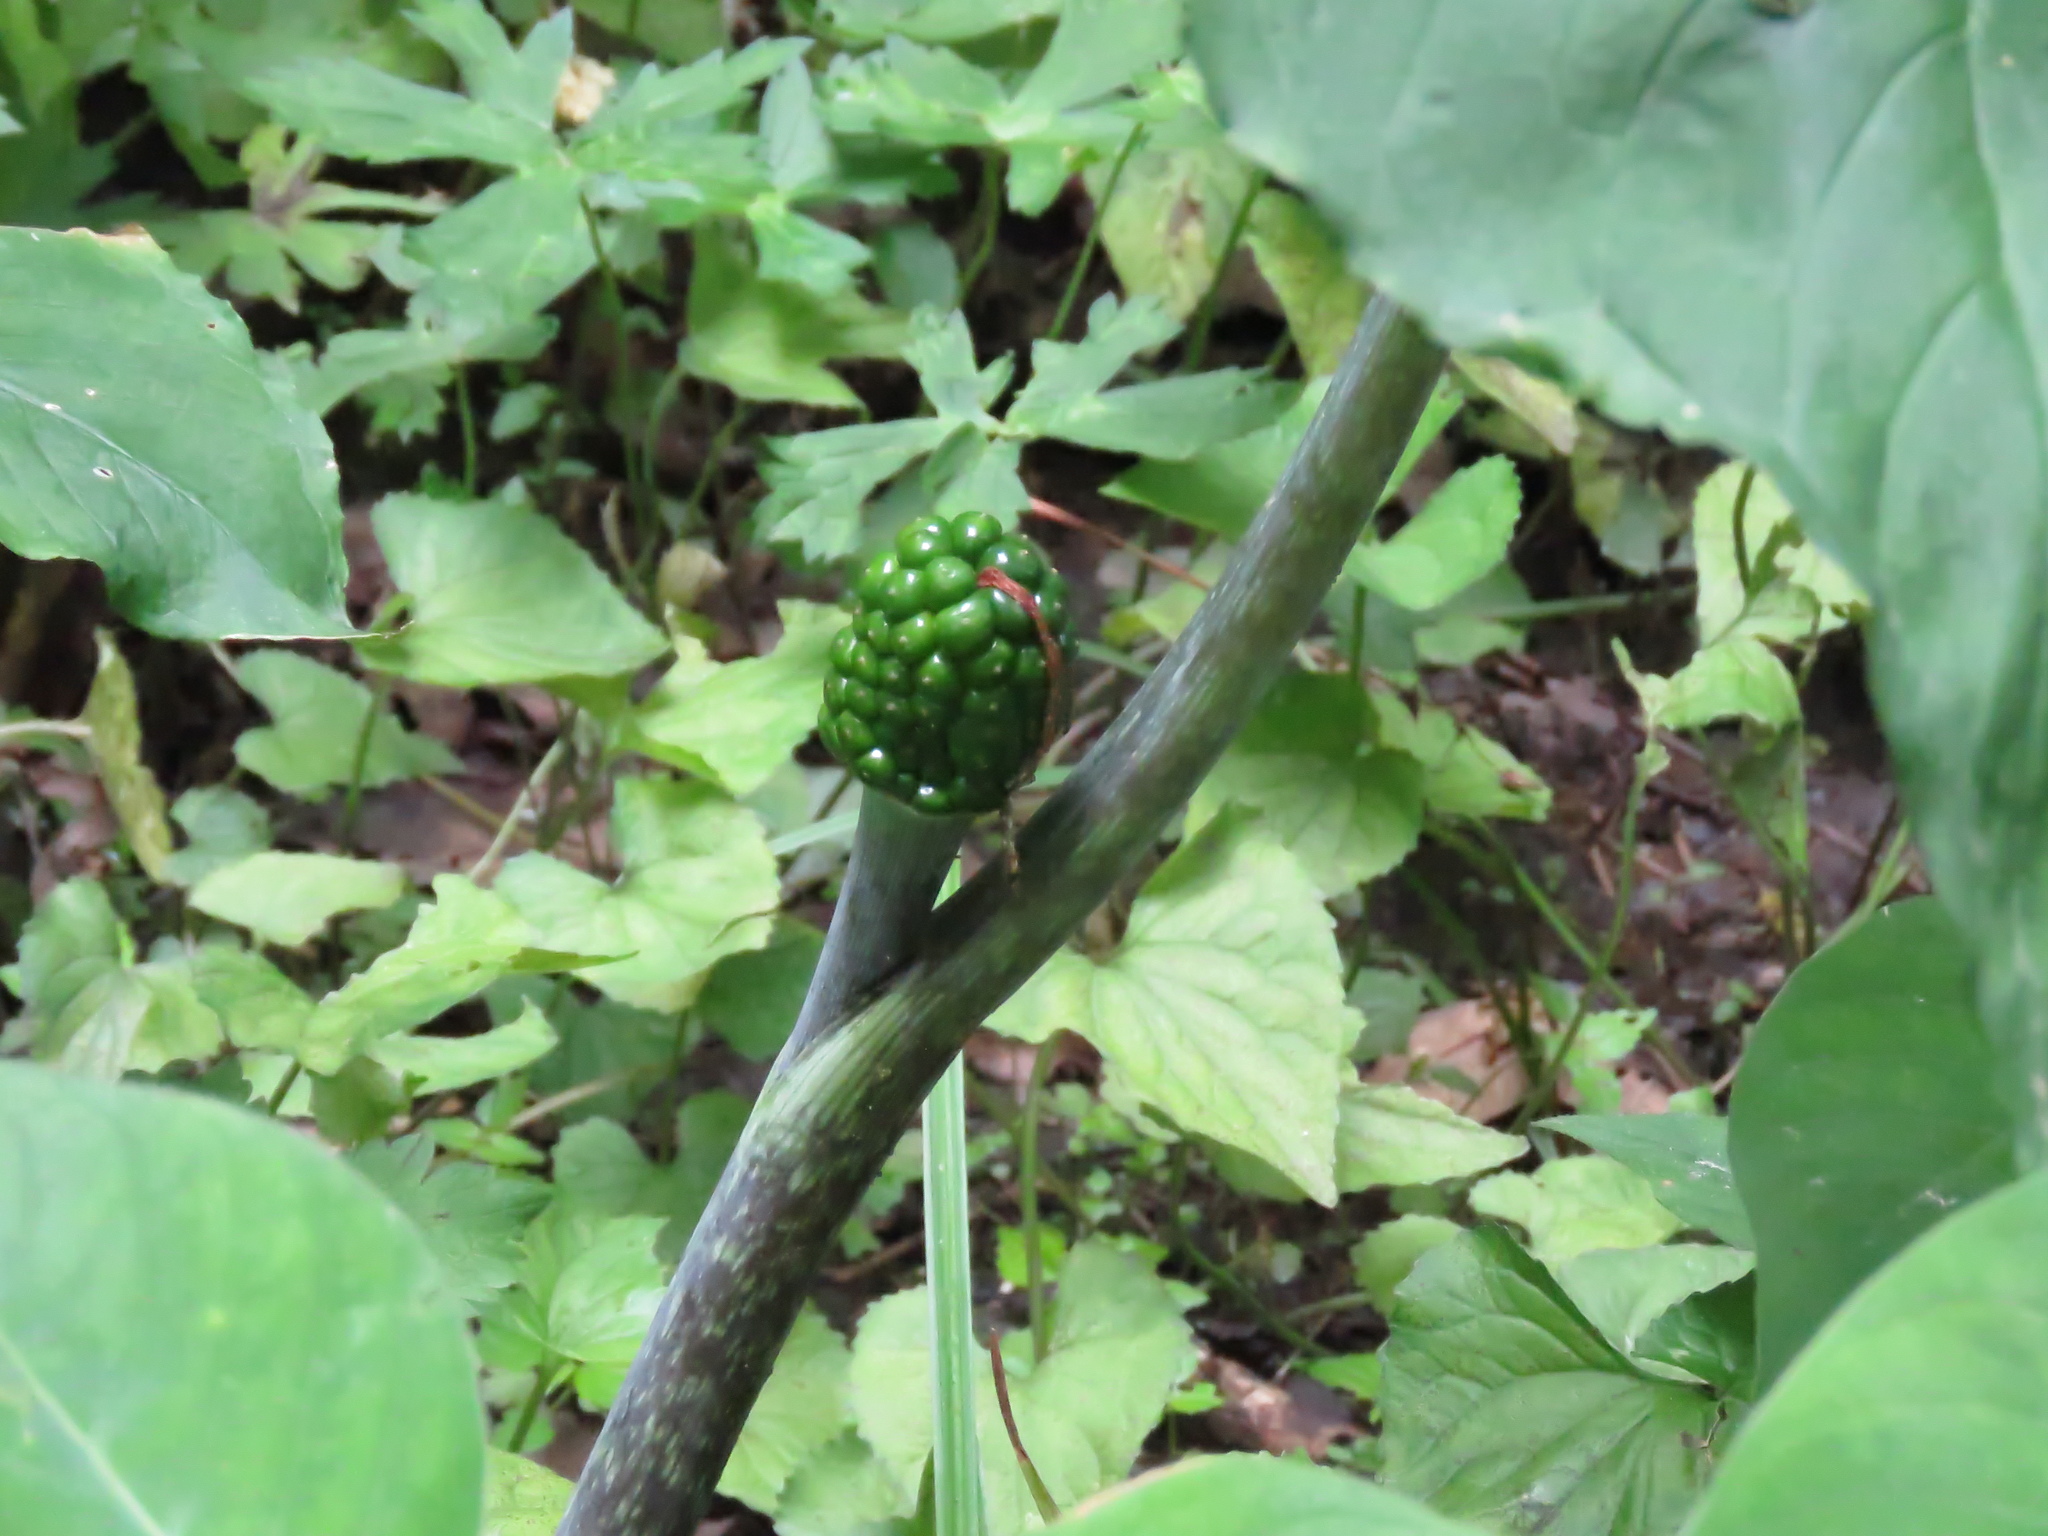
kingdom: Plantae
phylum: Tracheophyta
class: Liliopsida
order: Alismatales
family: Araceae
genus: Arisaema
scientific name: Arisaema triphyllum
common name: Jack-in-the-pulpit
